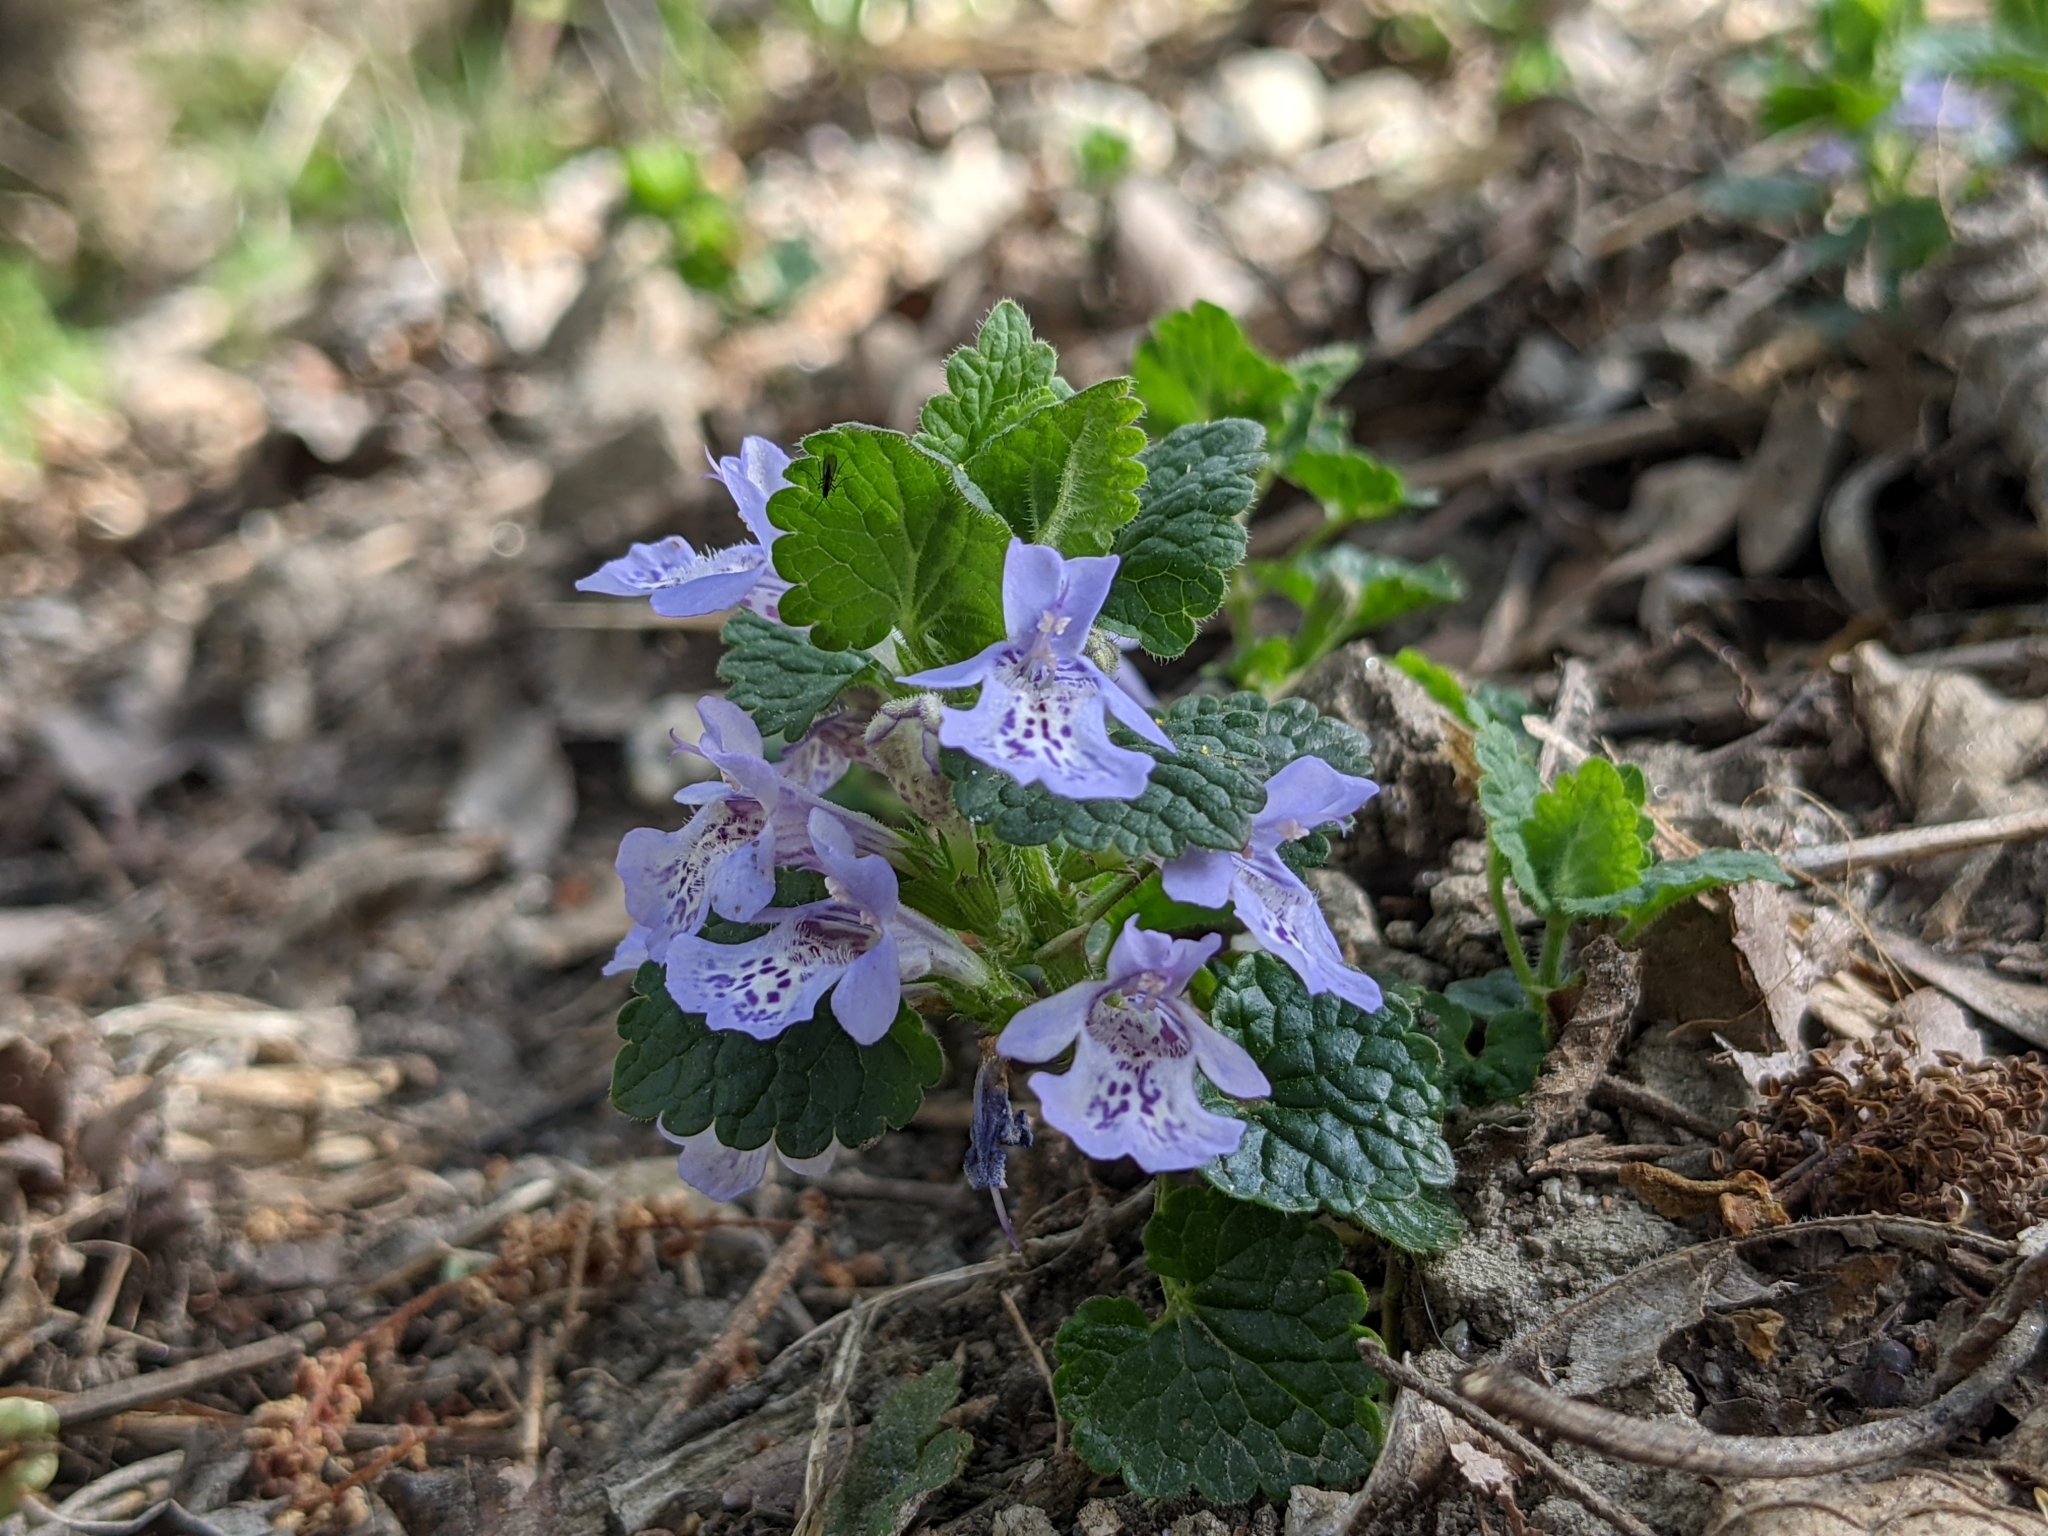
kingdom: Plantae
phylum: Tracheophyta
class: Magnoliopsida
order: Lamiales
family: Lamiaceae
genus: Glechoma
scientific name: Glechoma hederacea
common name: Ground ivy
